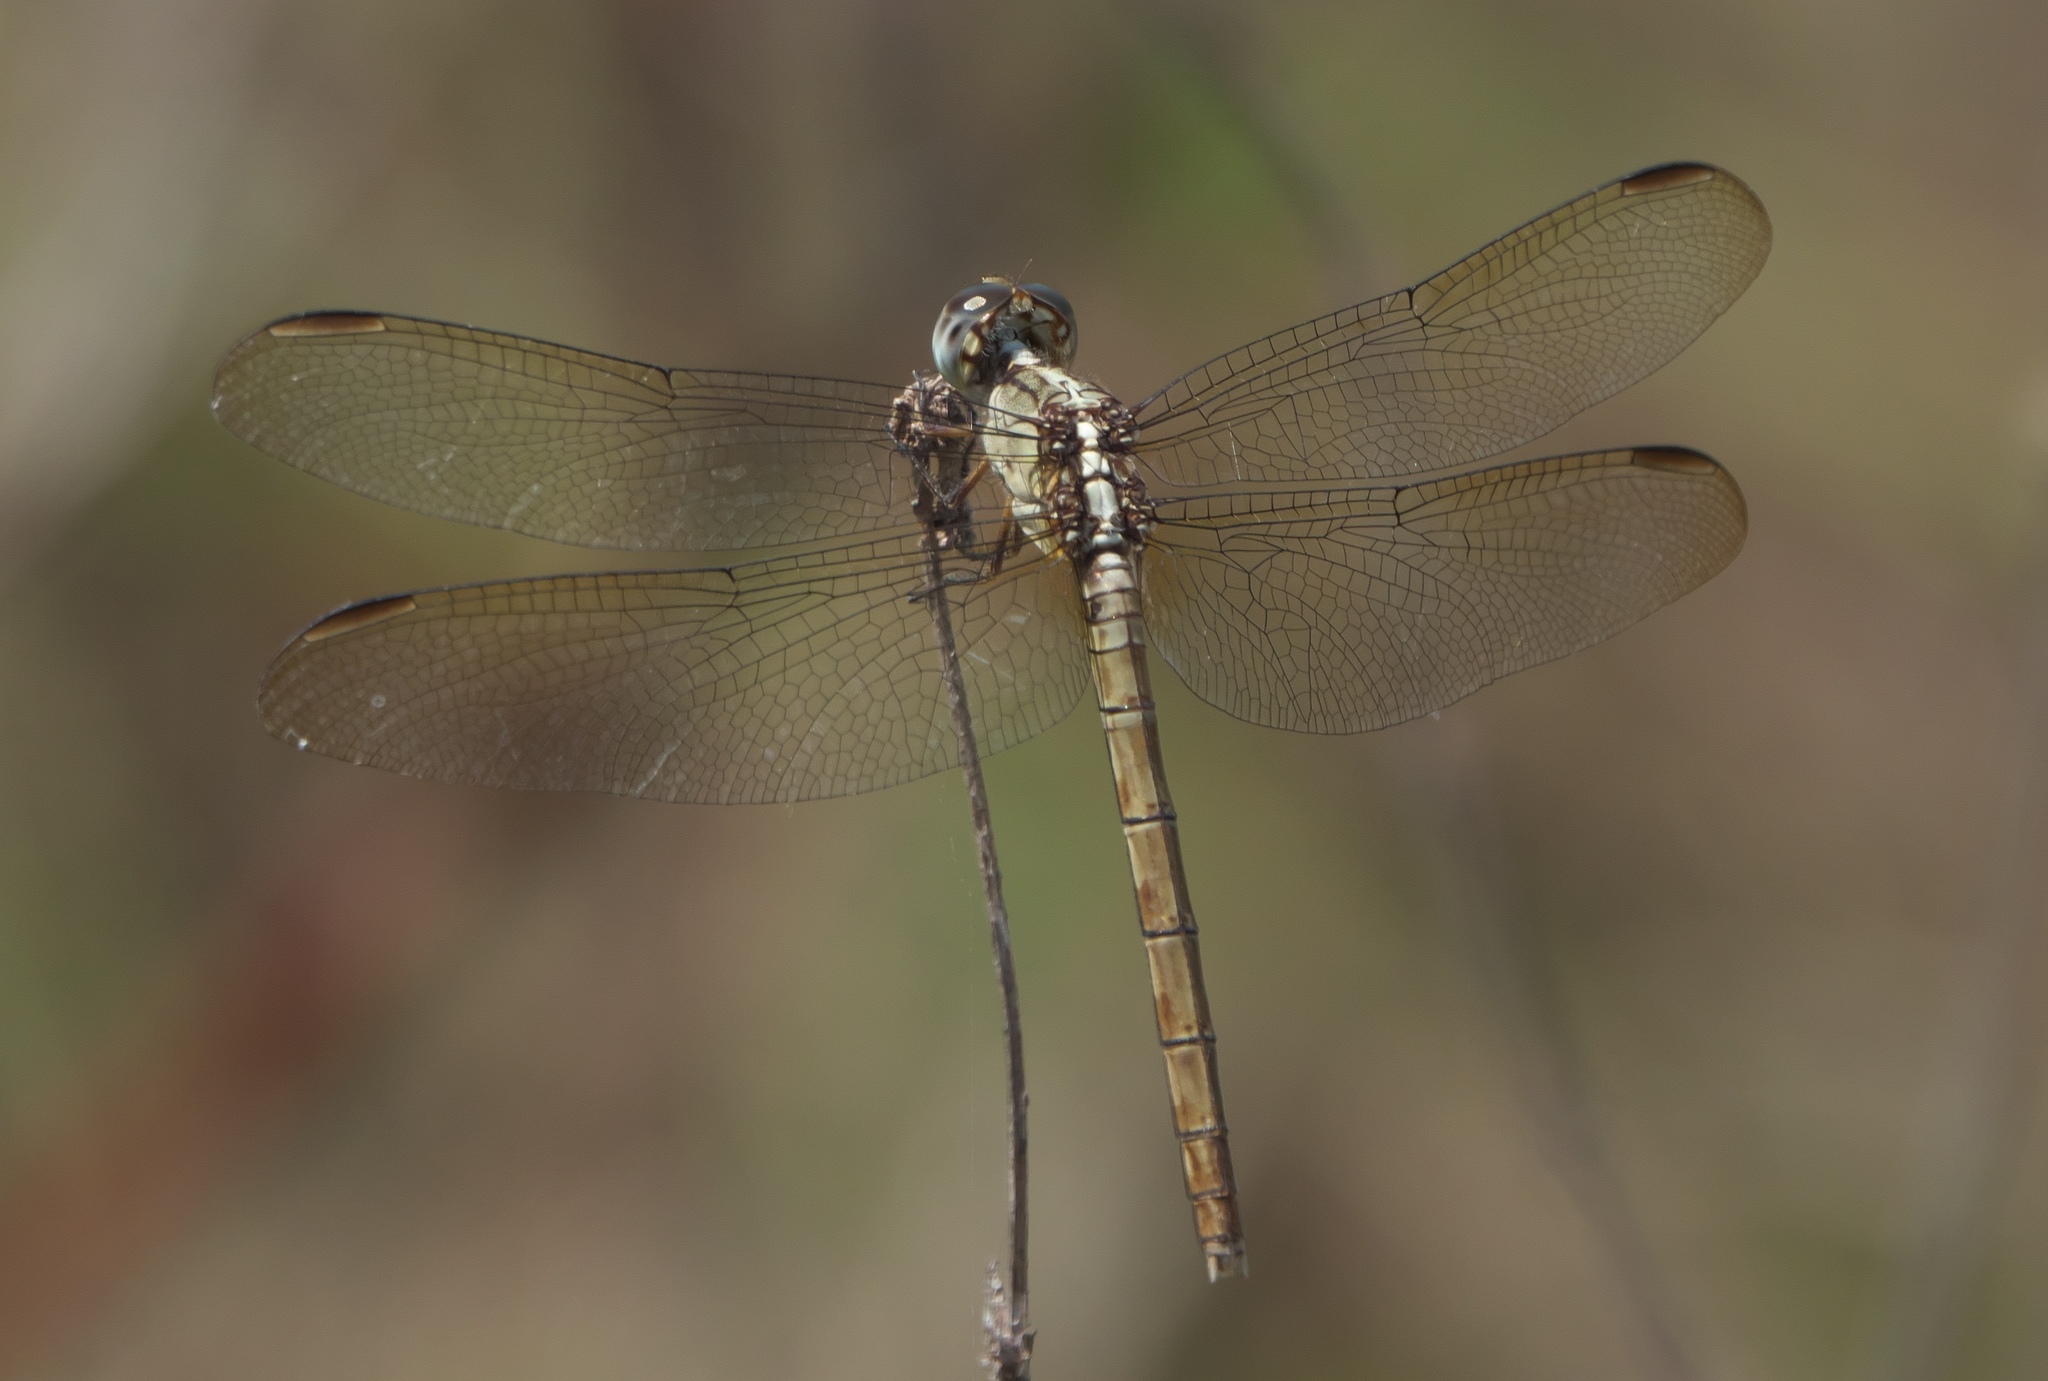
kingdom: Animalia
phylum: Arthropoda
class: Insecta
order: Odonata
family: Libellulidae
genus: Erythrodiplax
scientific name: Erythrodiplax umbrata
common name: Band-winged dragonlet
